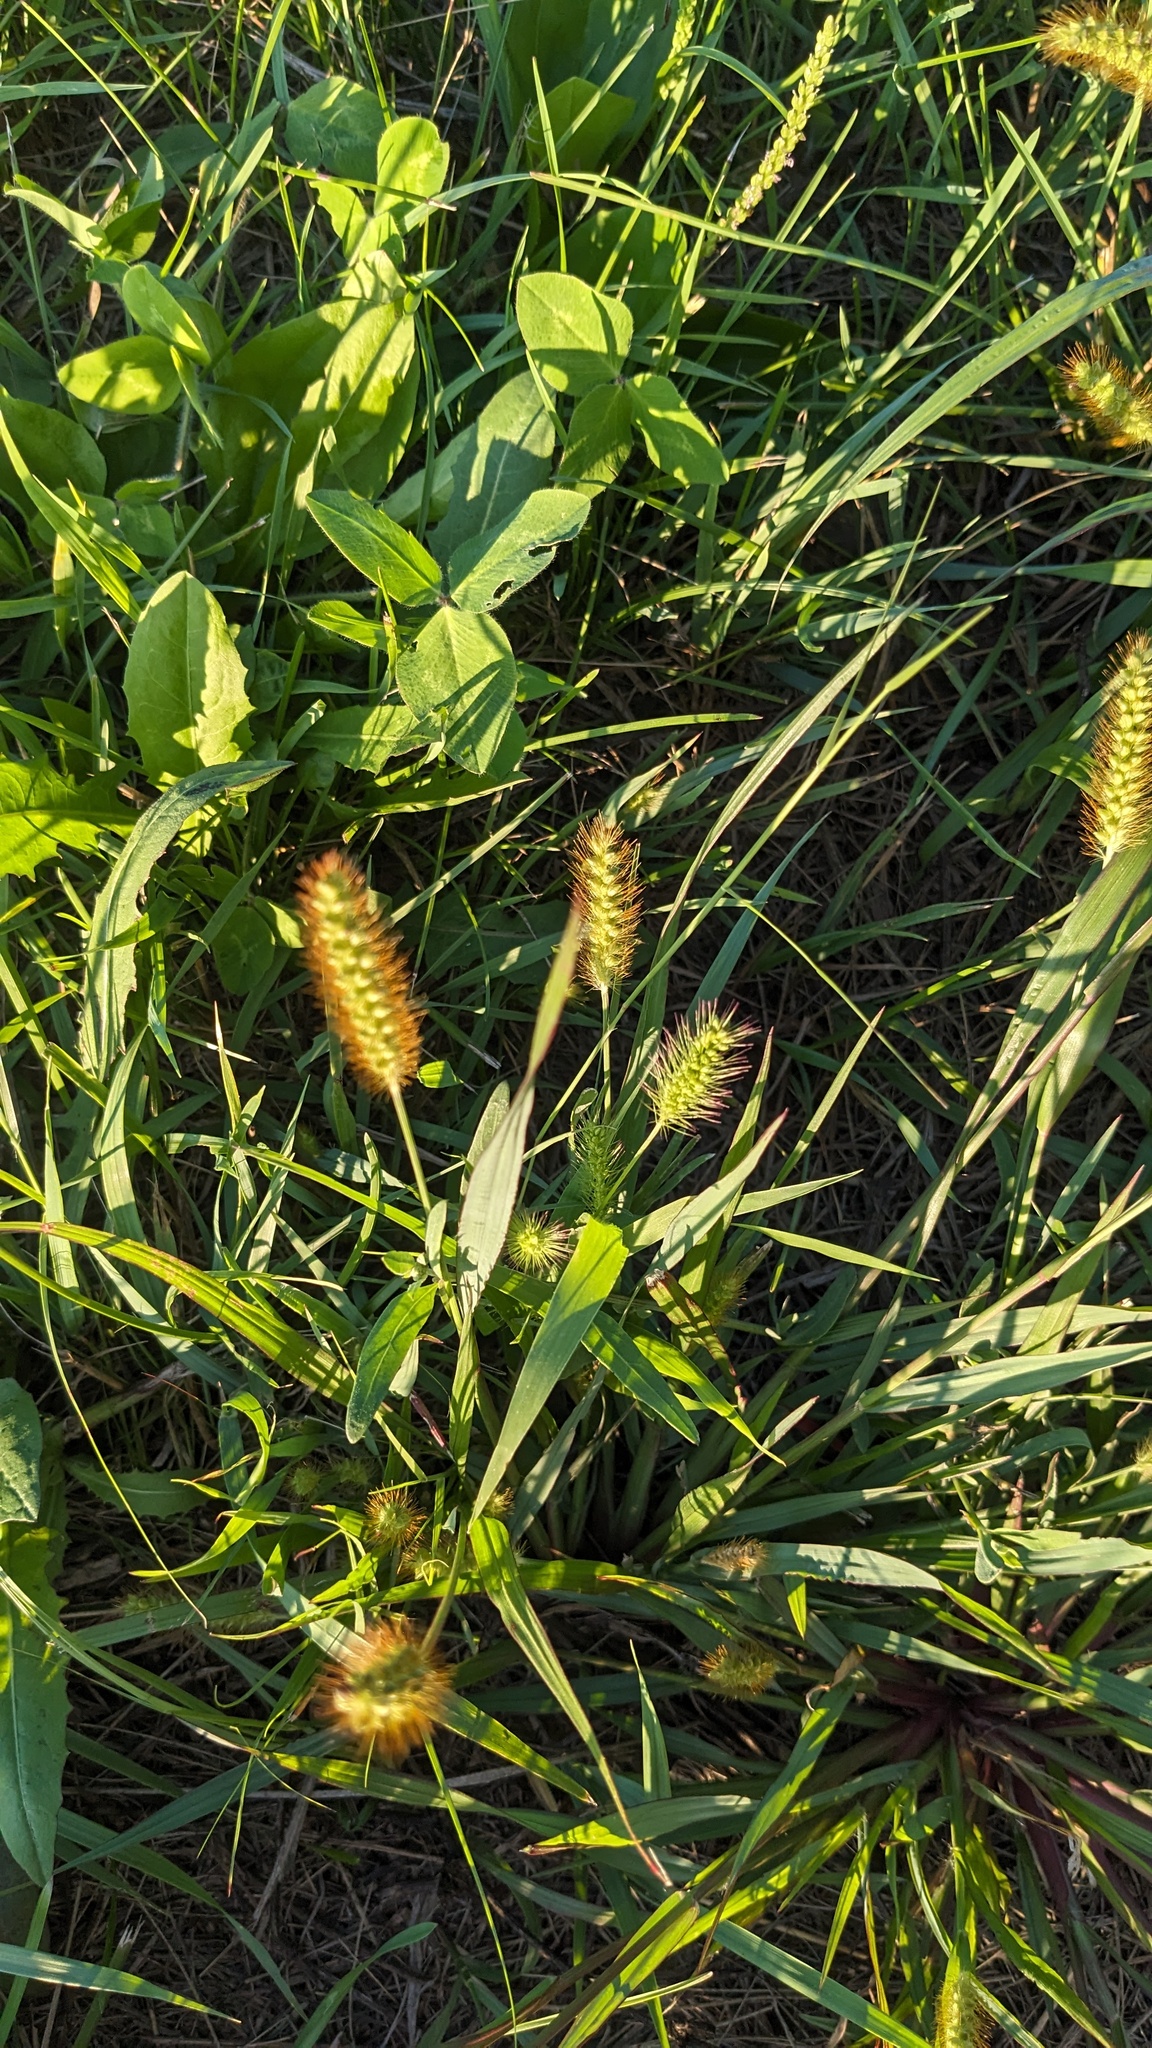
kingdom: Plantae
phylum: Tracheophyta
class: Liliopsida
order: Poales
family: Poaceae
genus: Setaria
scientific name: Setaria pumila
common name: Yellow bristle-grass
